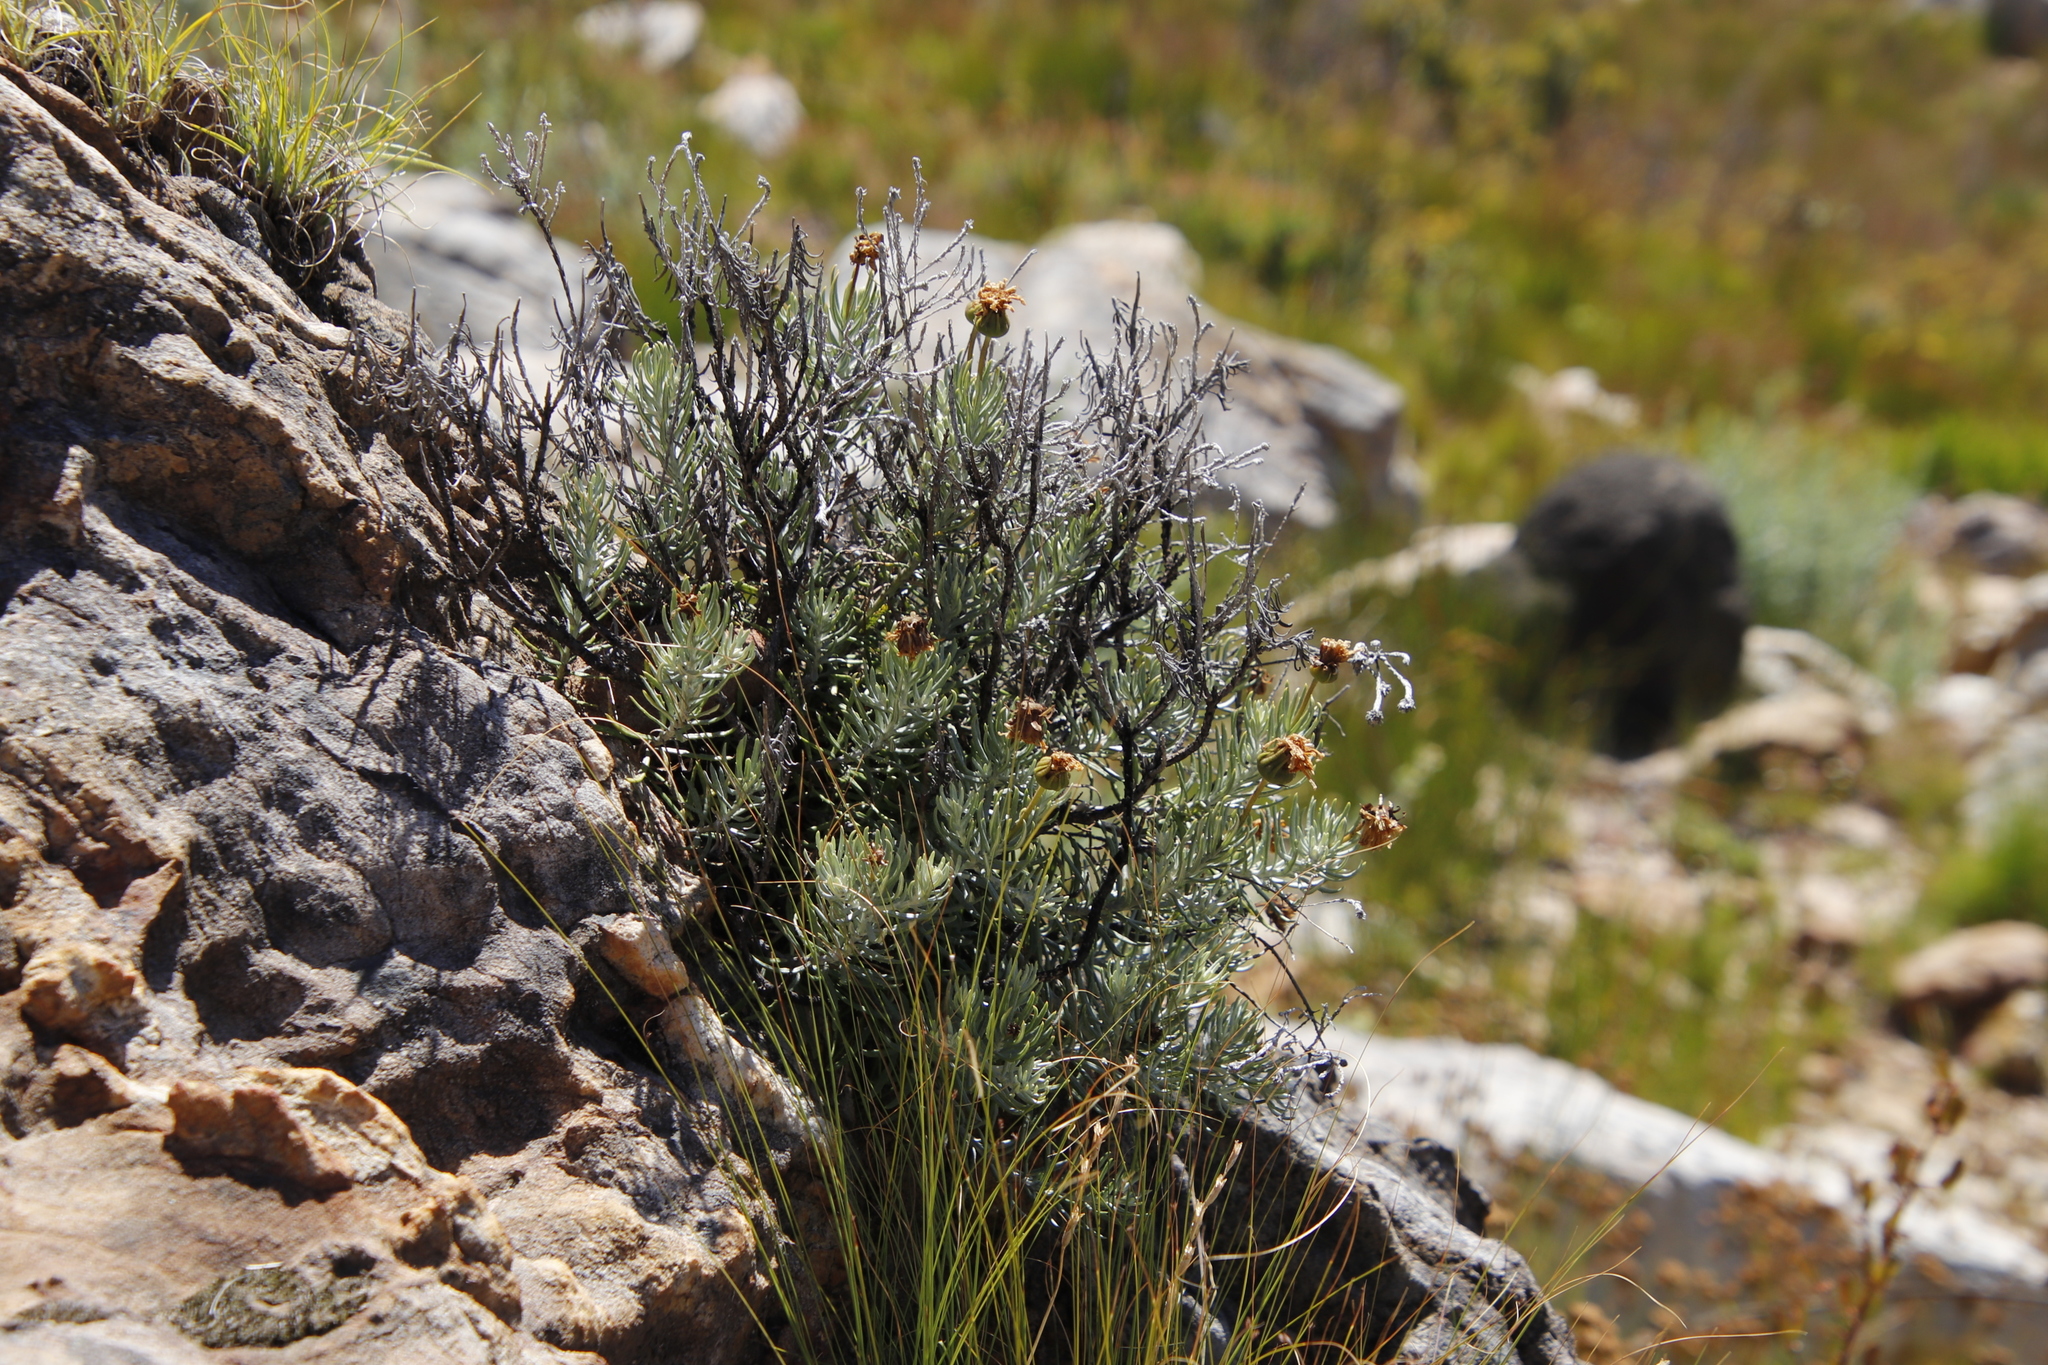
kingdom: Plantae
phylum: Tracheophyta
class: Magnoliopsida
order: Asterales
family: Asteraceae
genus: Heterolepis
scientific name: Heterolepis aliena
